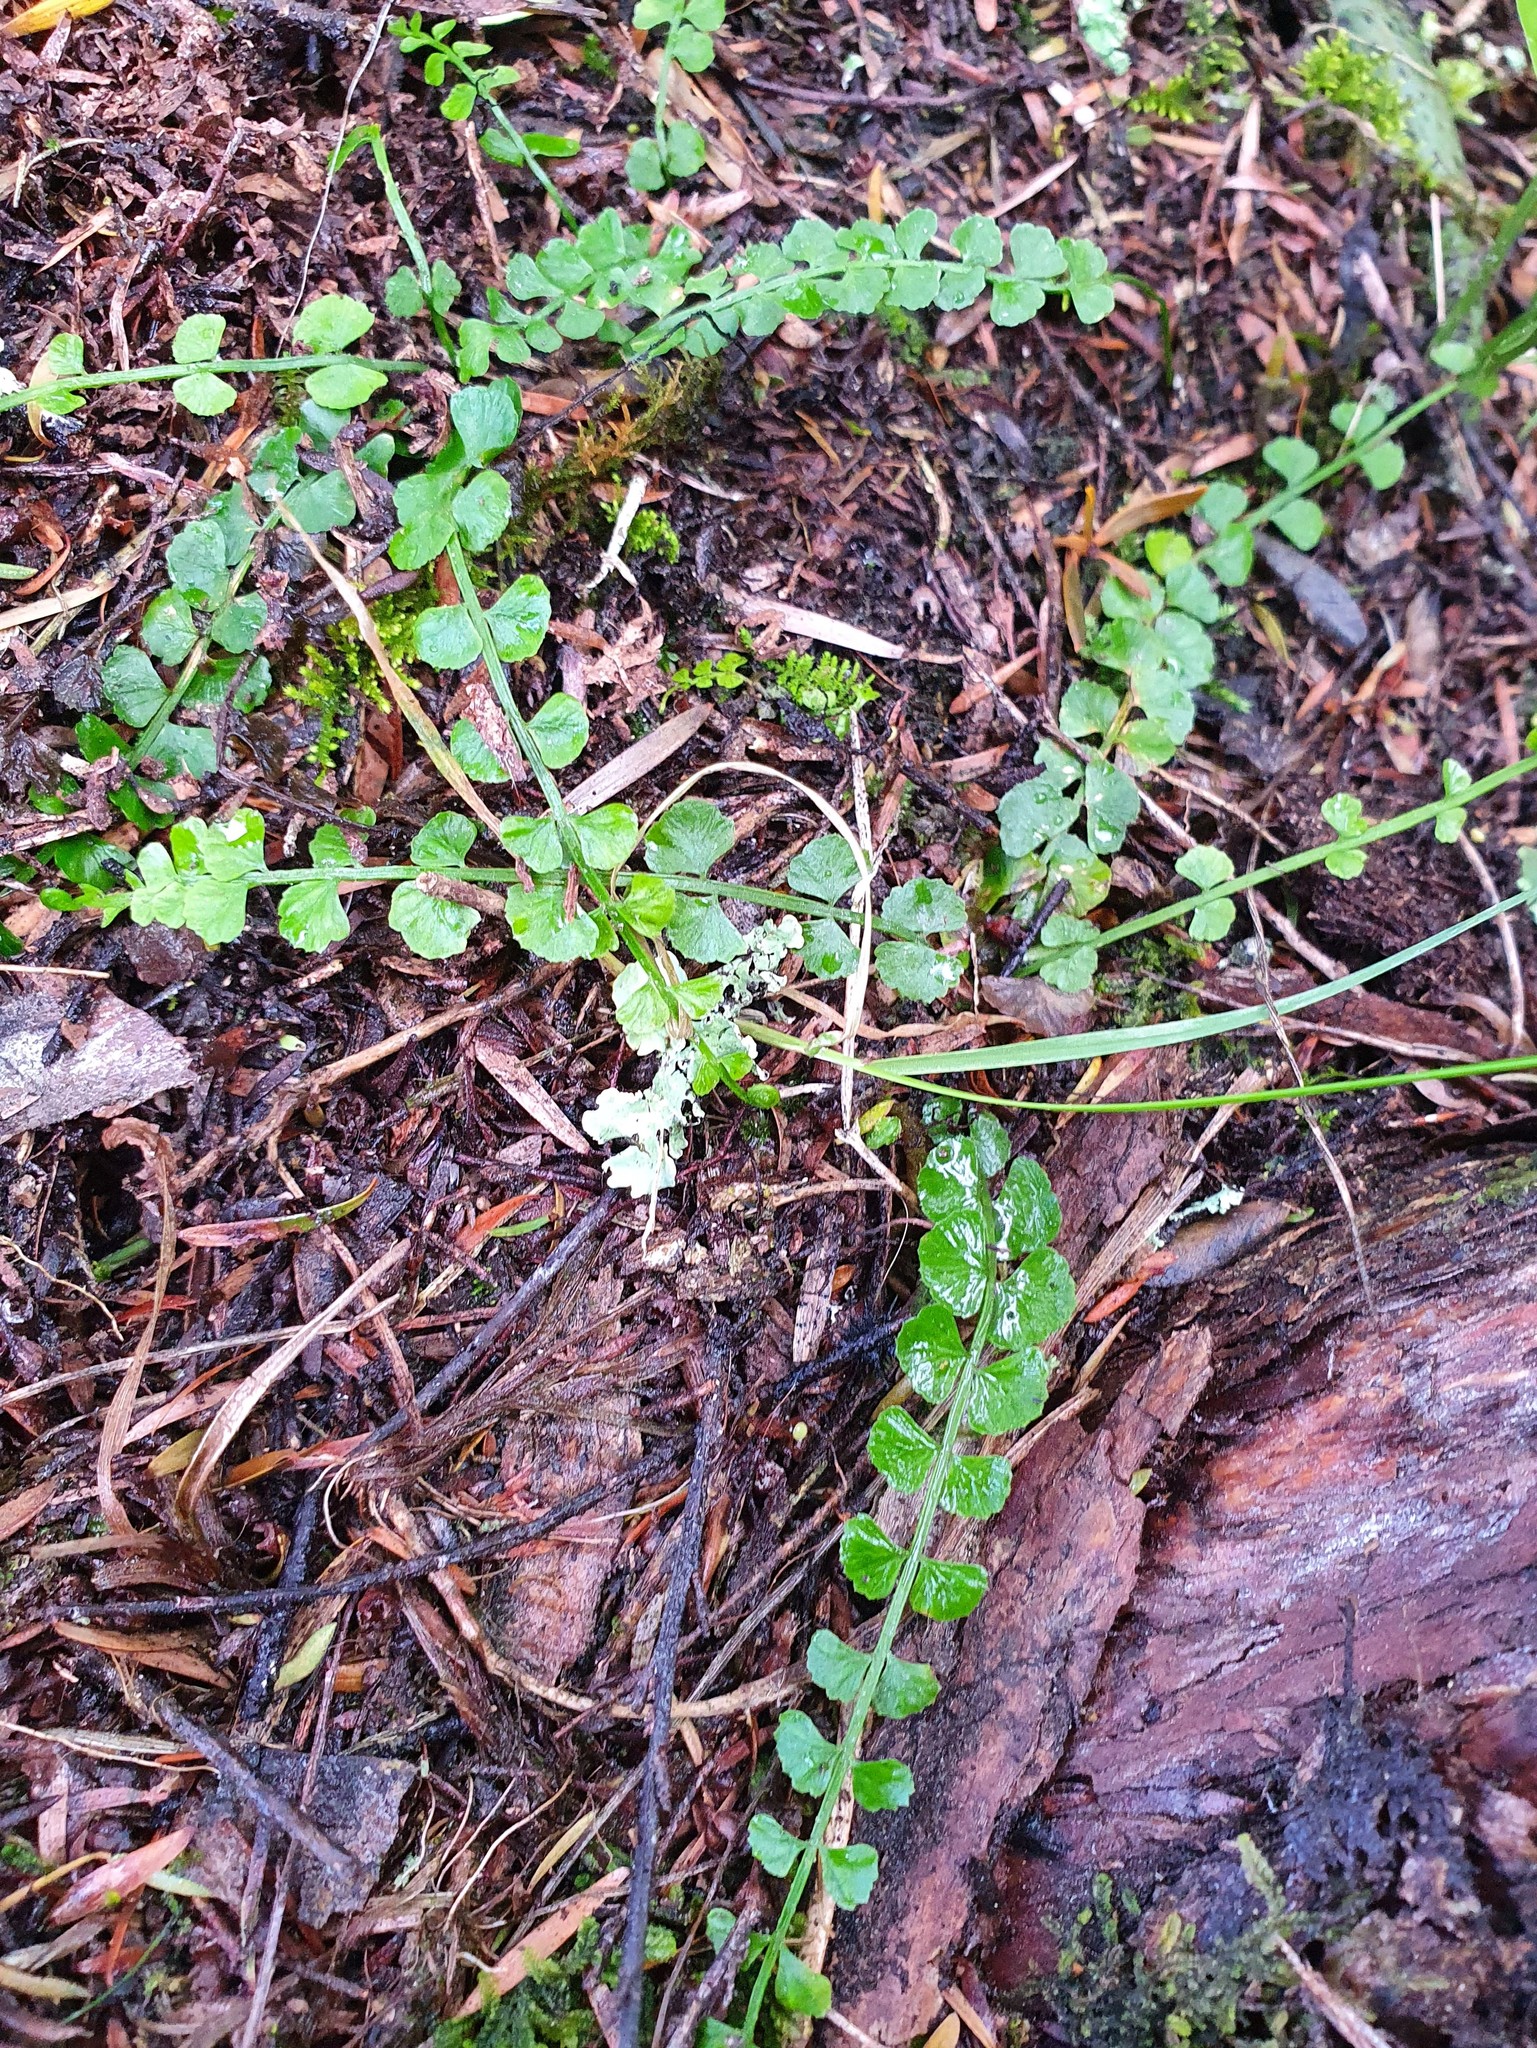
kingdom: Plantae
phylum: Tracheophyta
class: Polypodiopsida
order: Polypodiales
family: Aspleniaceae
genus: Asplenium
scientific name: Asplenium flabellifolium
